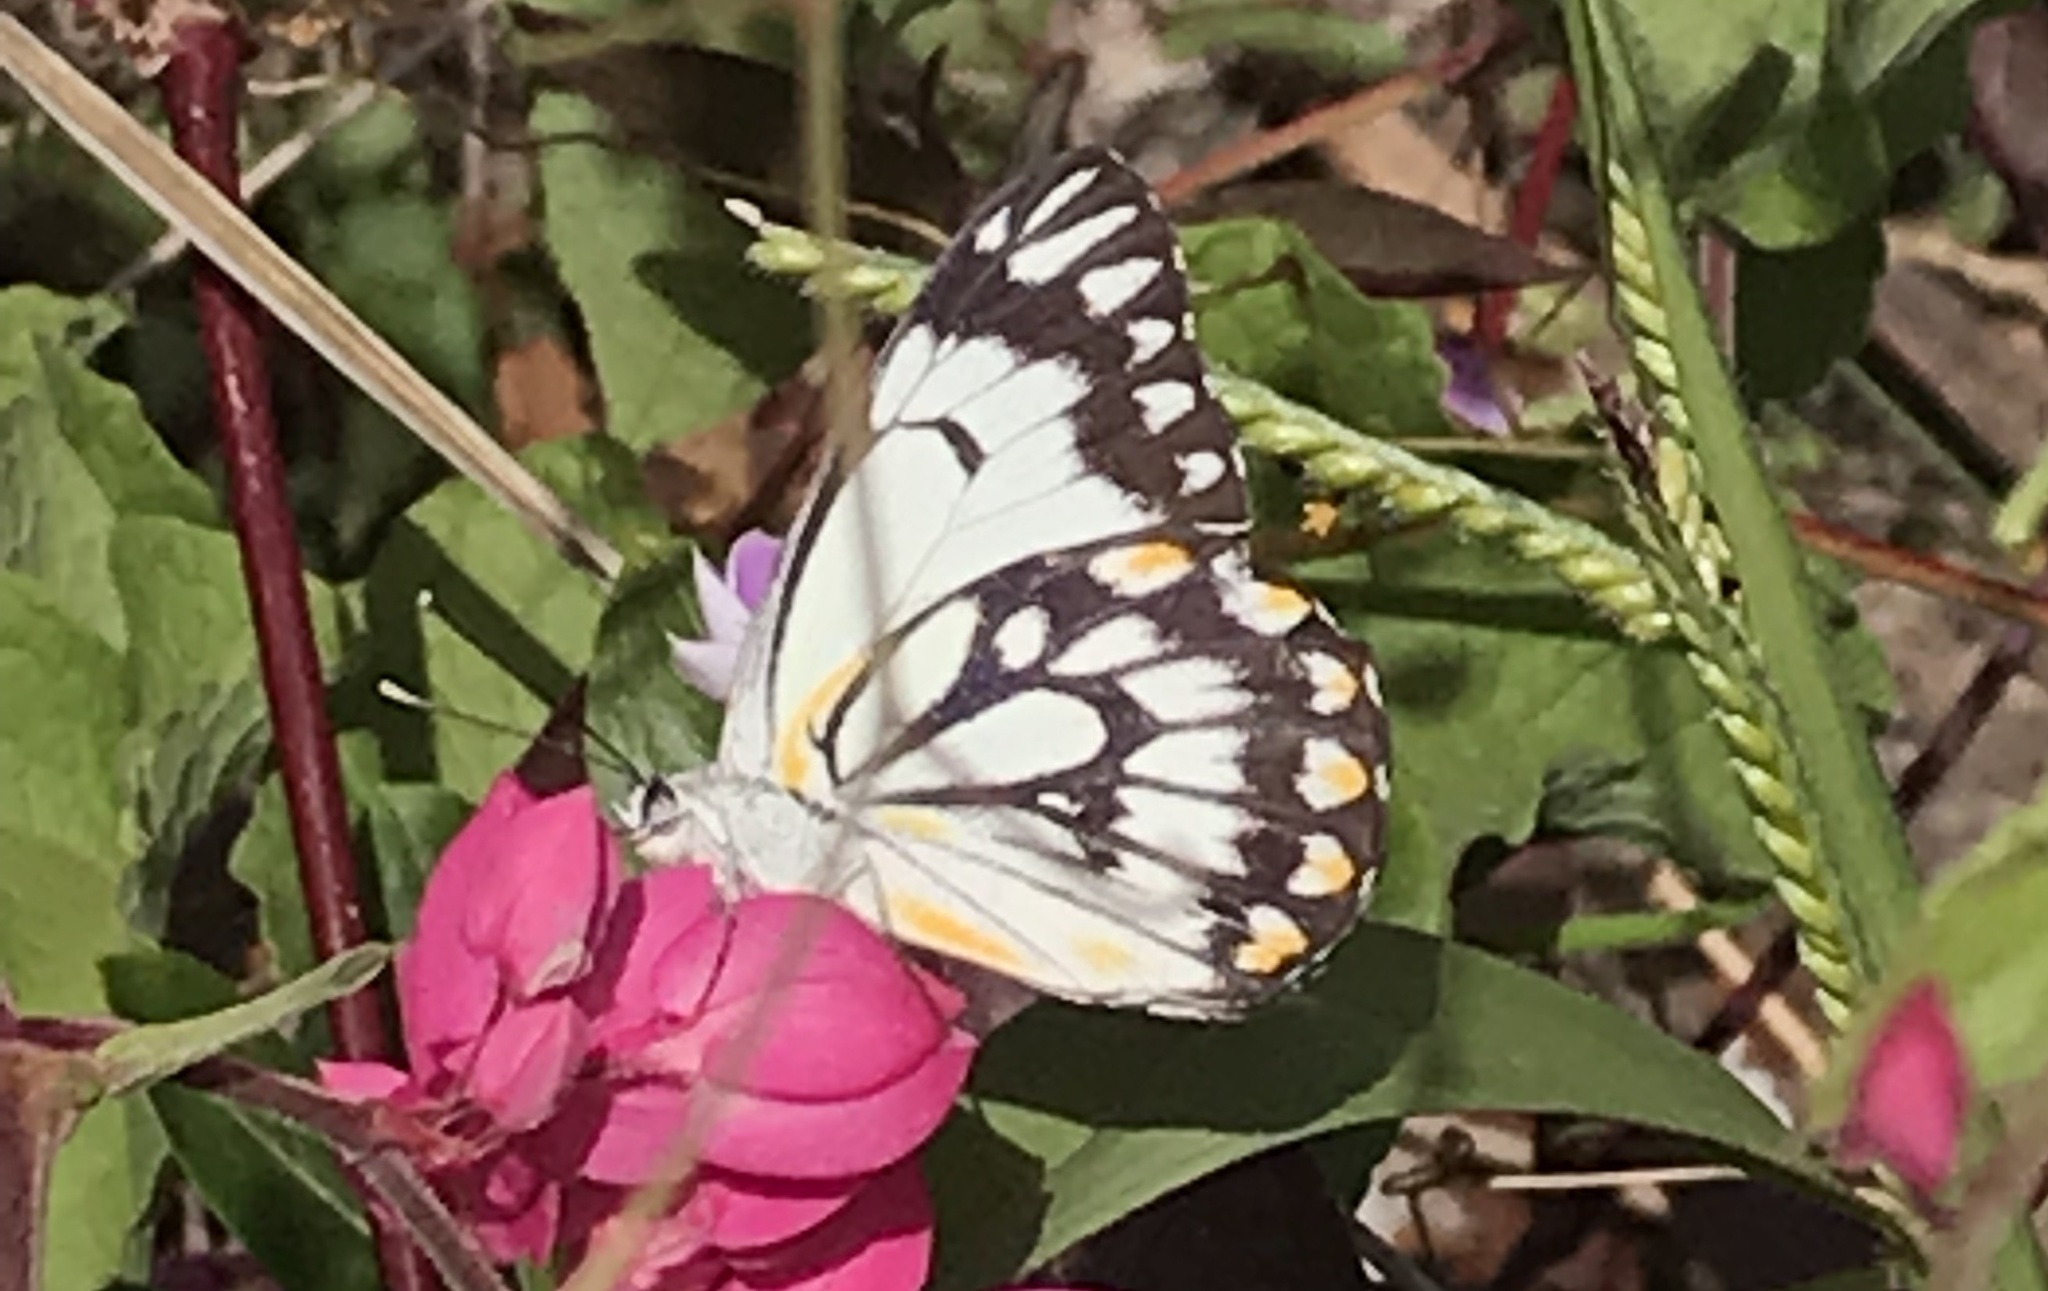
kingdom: Animalia
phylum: Arthropoda
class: Insecta
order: Lepidoptera
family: Pieridae
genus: Belenois
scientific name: Belenois java
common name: Caper white
